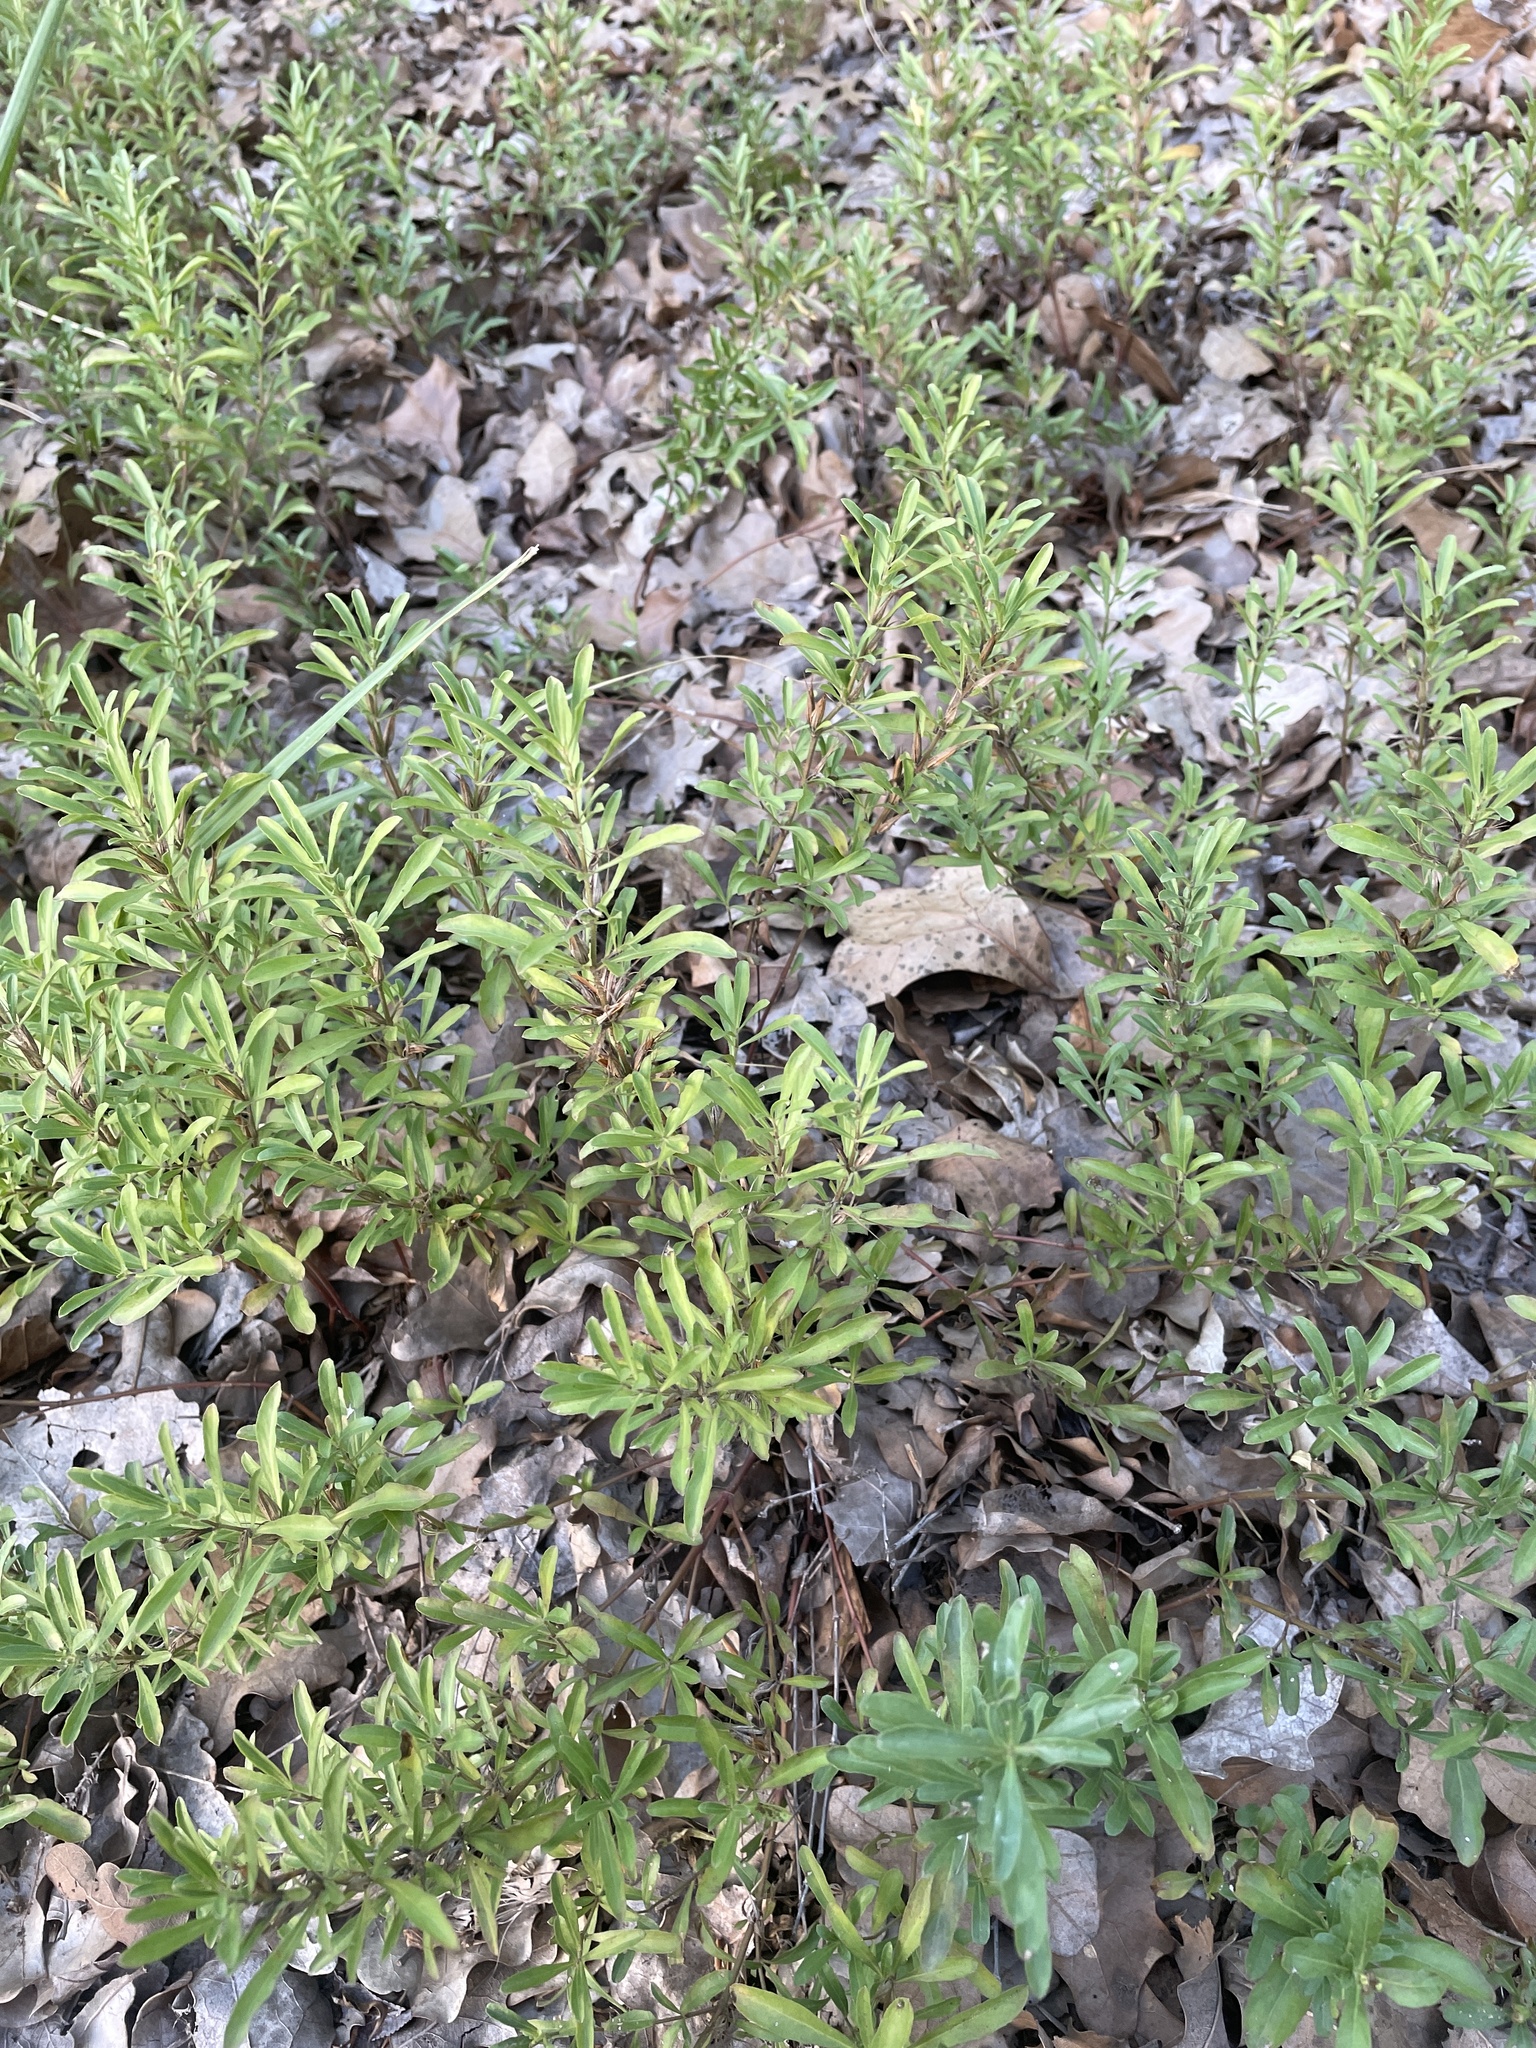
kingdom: Plantae
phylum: Tracheophyta
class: Magnoliopsida
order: Lamiales
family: Acanthaceae
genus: Dyschoriste
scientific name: Dyschoriste linearis
